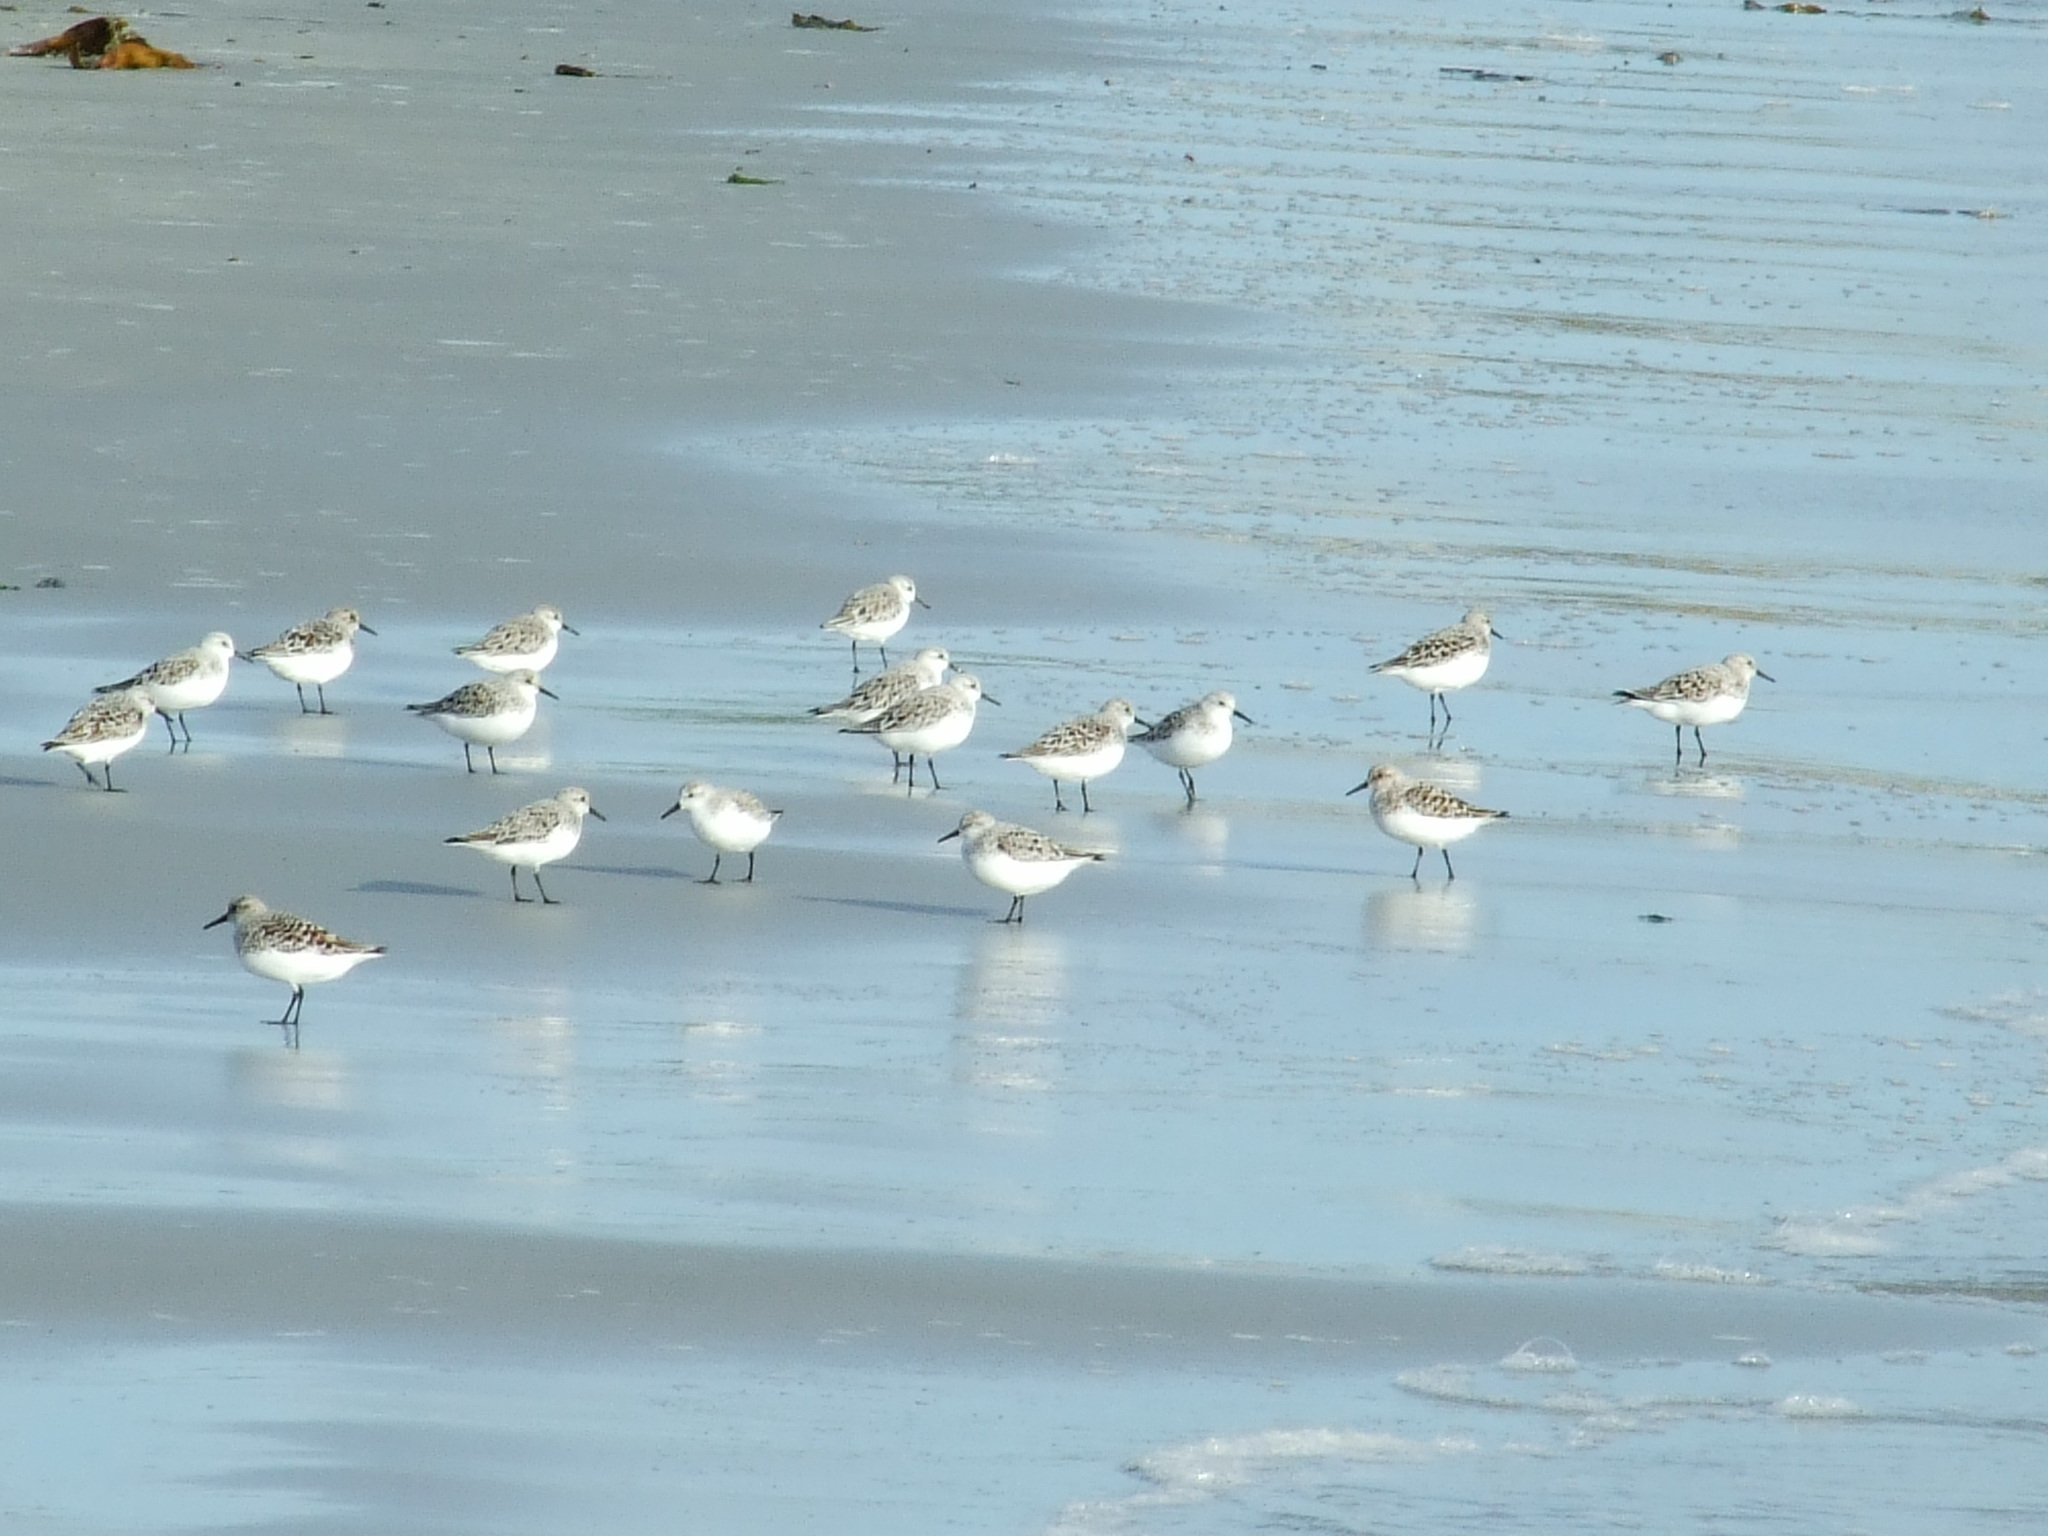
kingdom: Animalia
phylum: Chordata
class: Aves
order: Charadriiformes
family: Scolopacidae
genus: Calidris
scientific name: Calidris alba
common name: Sanderling
